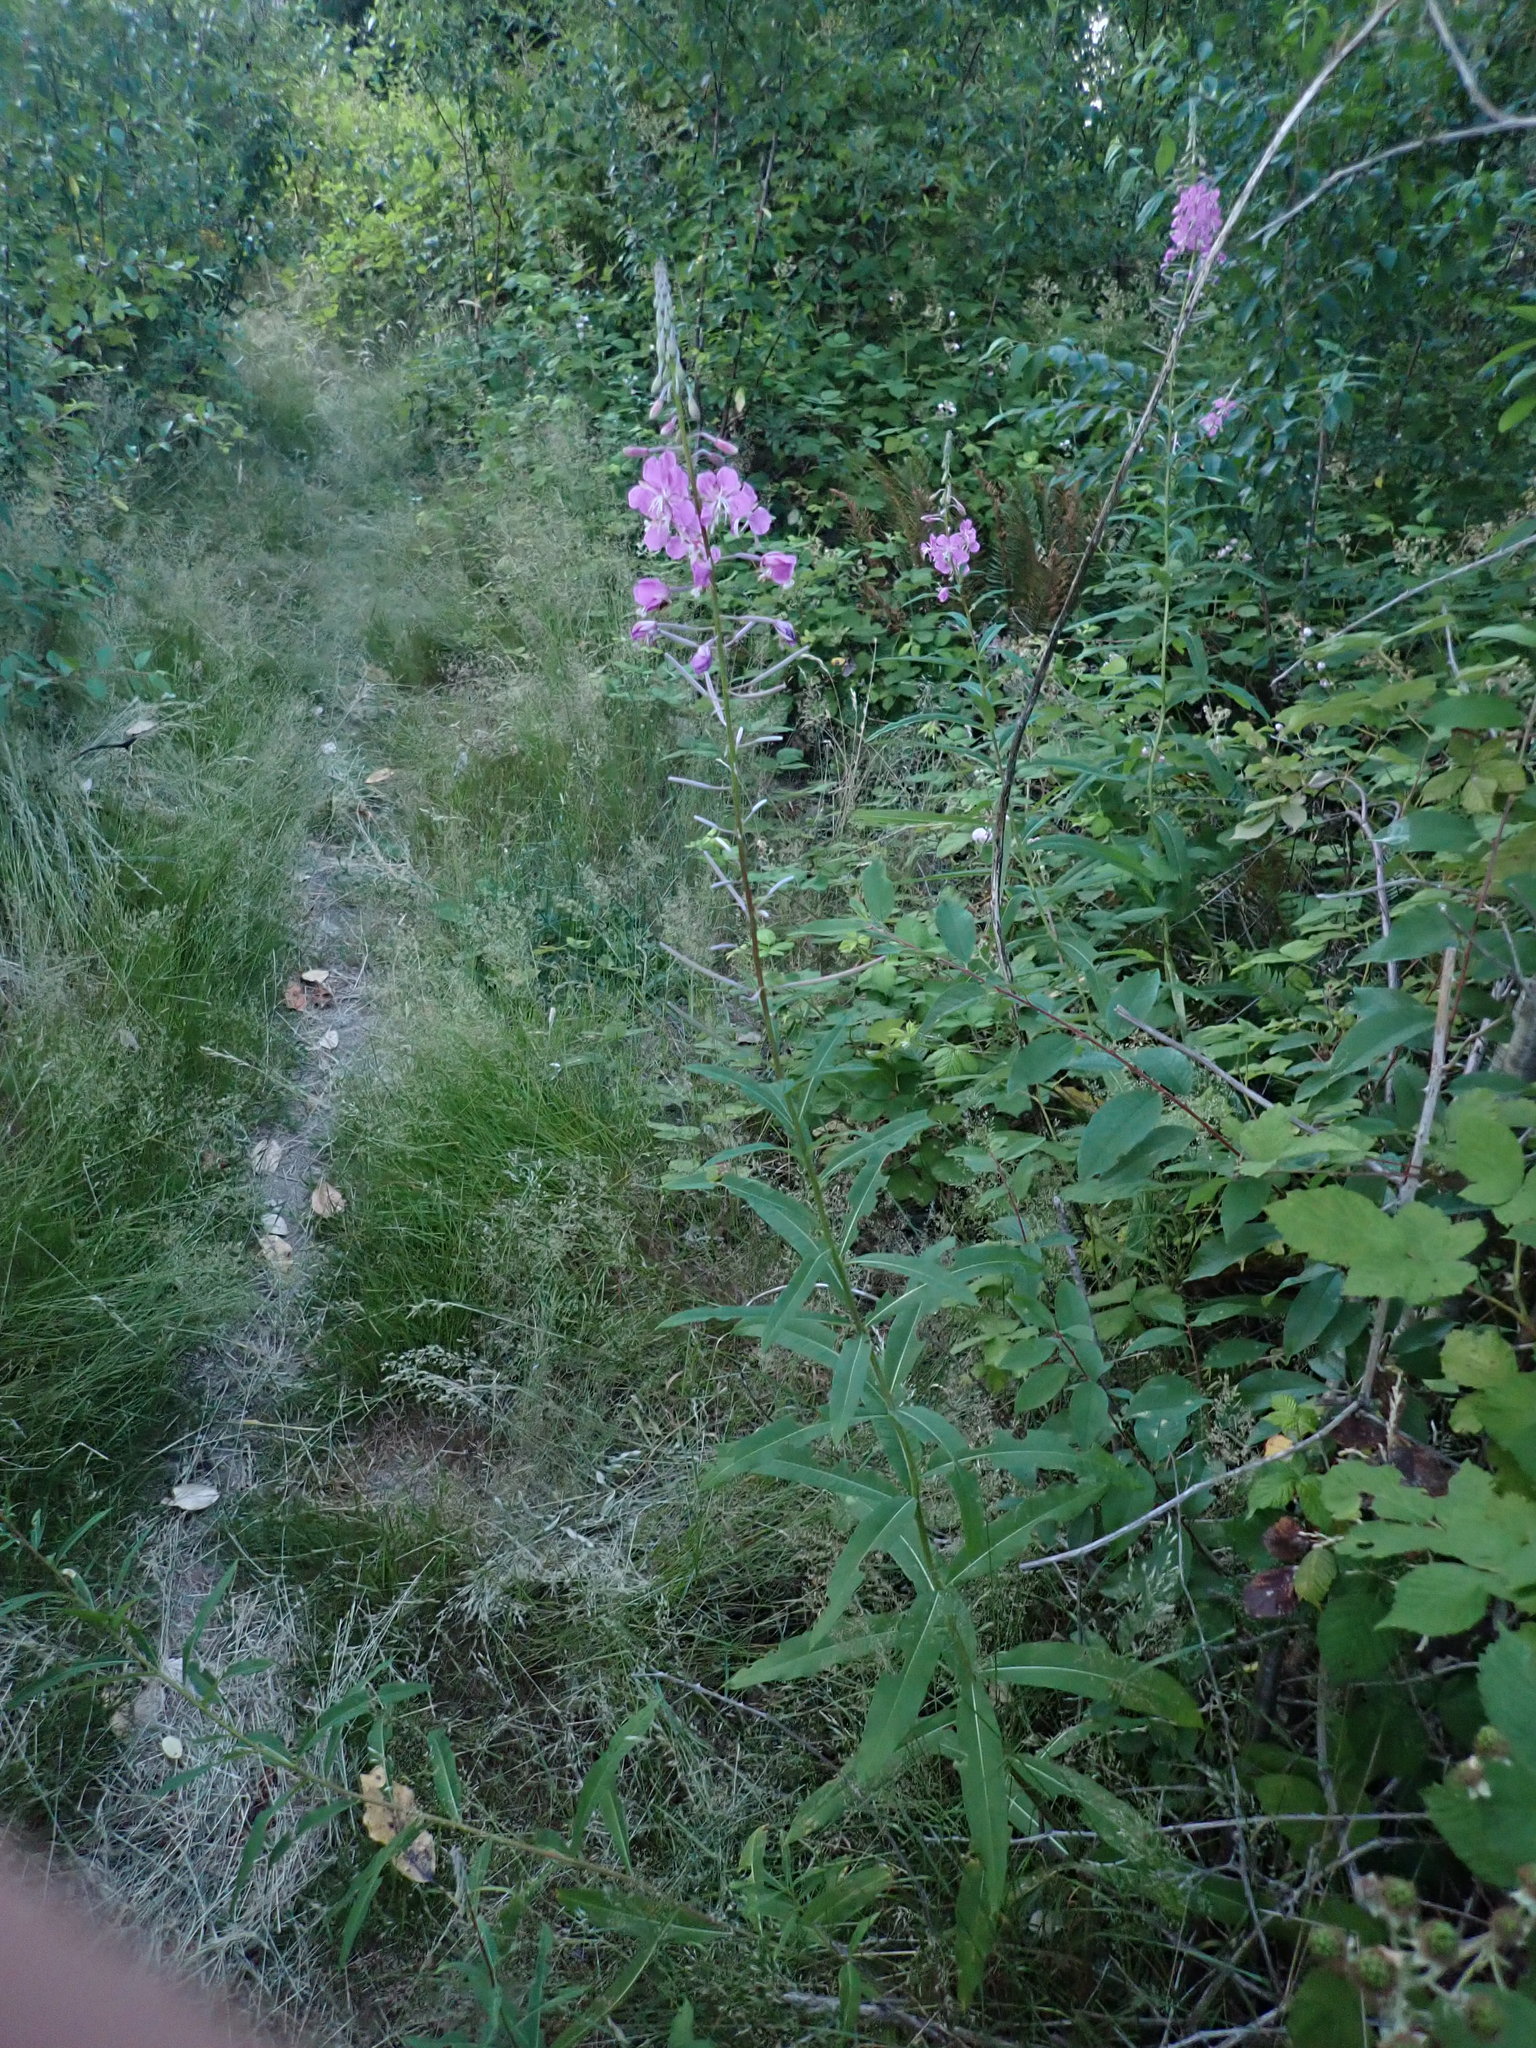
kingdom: Plantae
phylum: Tracheophyta
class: Magnoliopsida
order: Myrtales
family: Onagraceae
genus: Chamaenerion
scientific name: Chamaenerion angustifolium
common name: Fireweed
